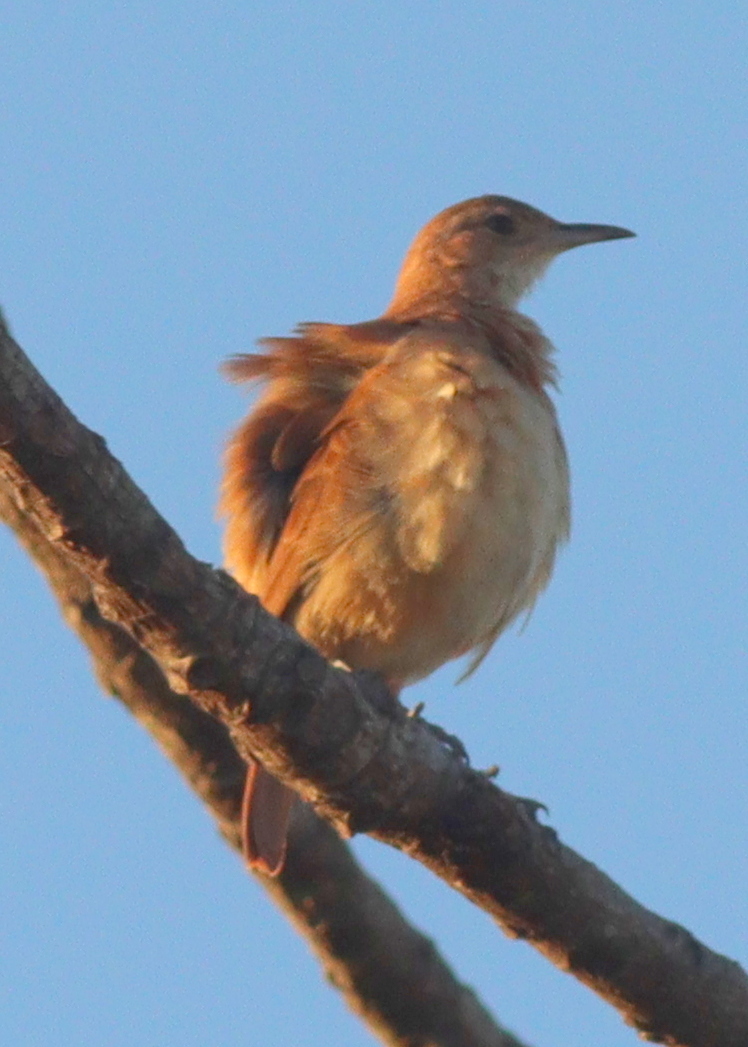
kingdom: Animalia
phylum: Chordata
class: Aves
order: Passeriformes
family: Furnariidae
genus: Furnarius
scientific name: Furnarius rufus
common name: Rufous hornero
